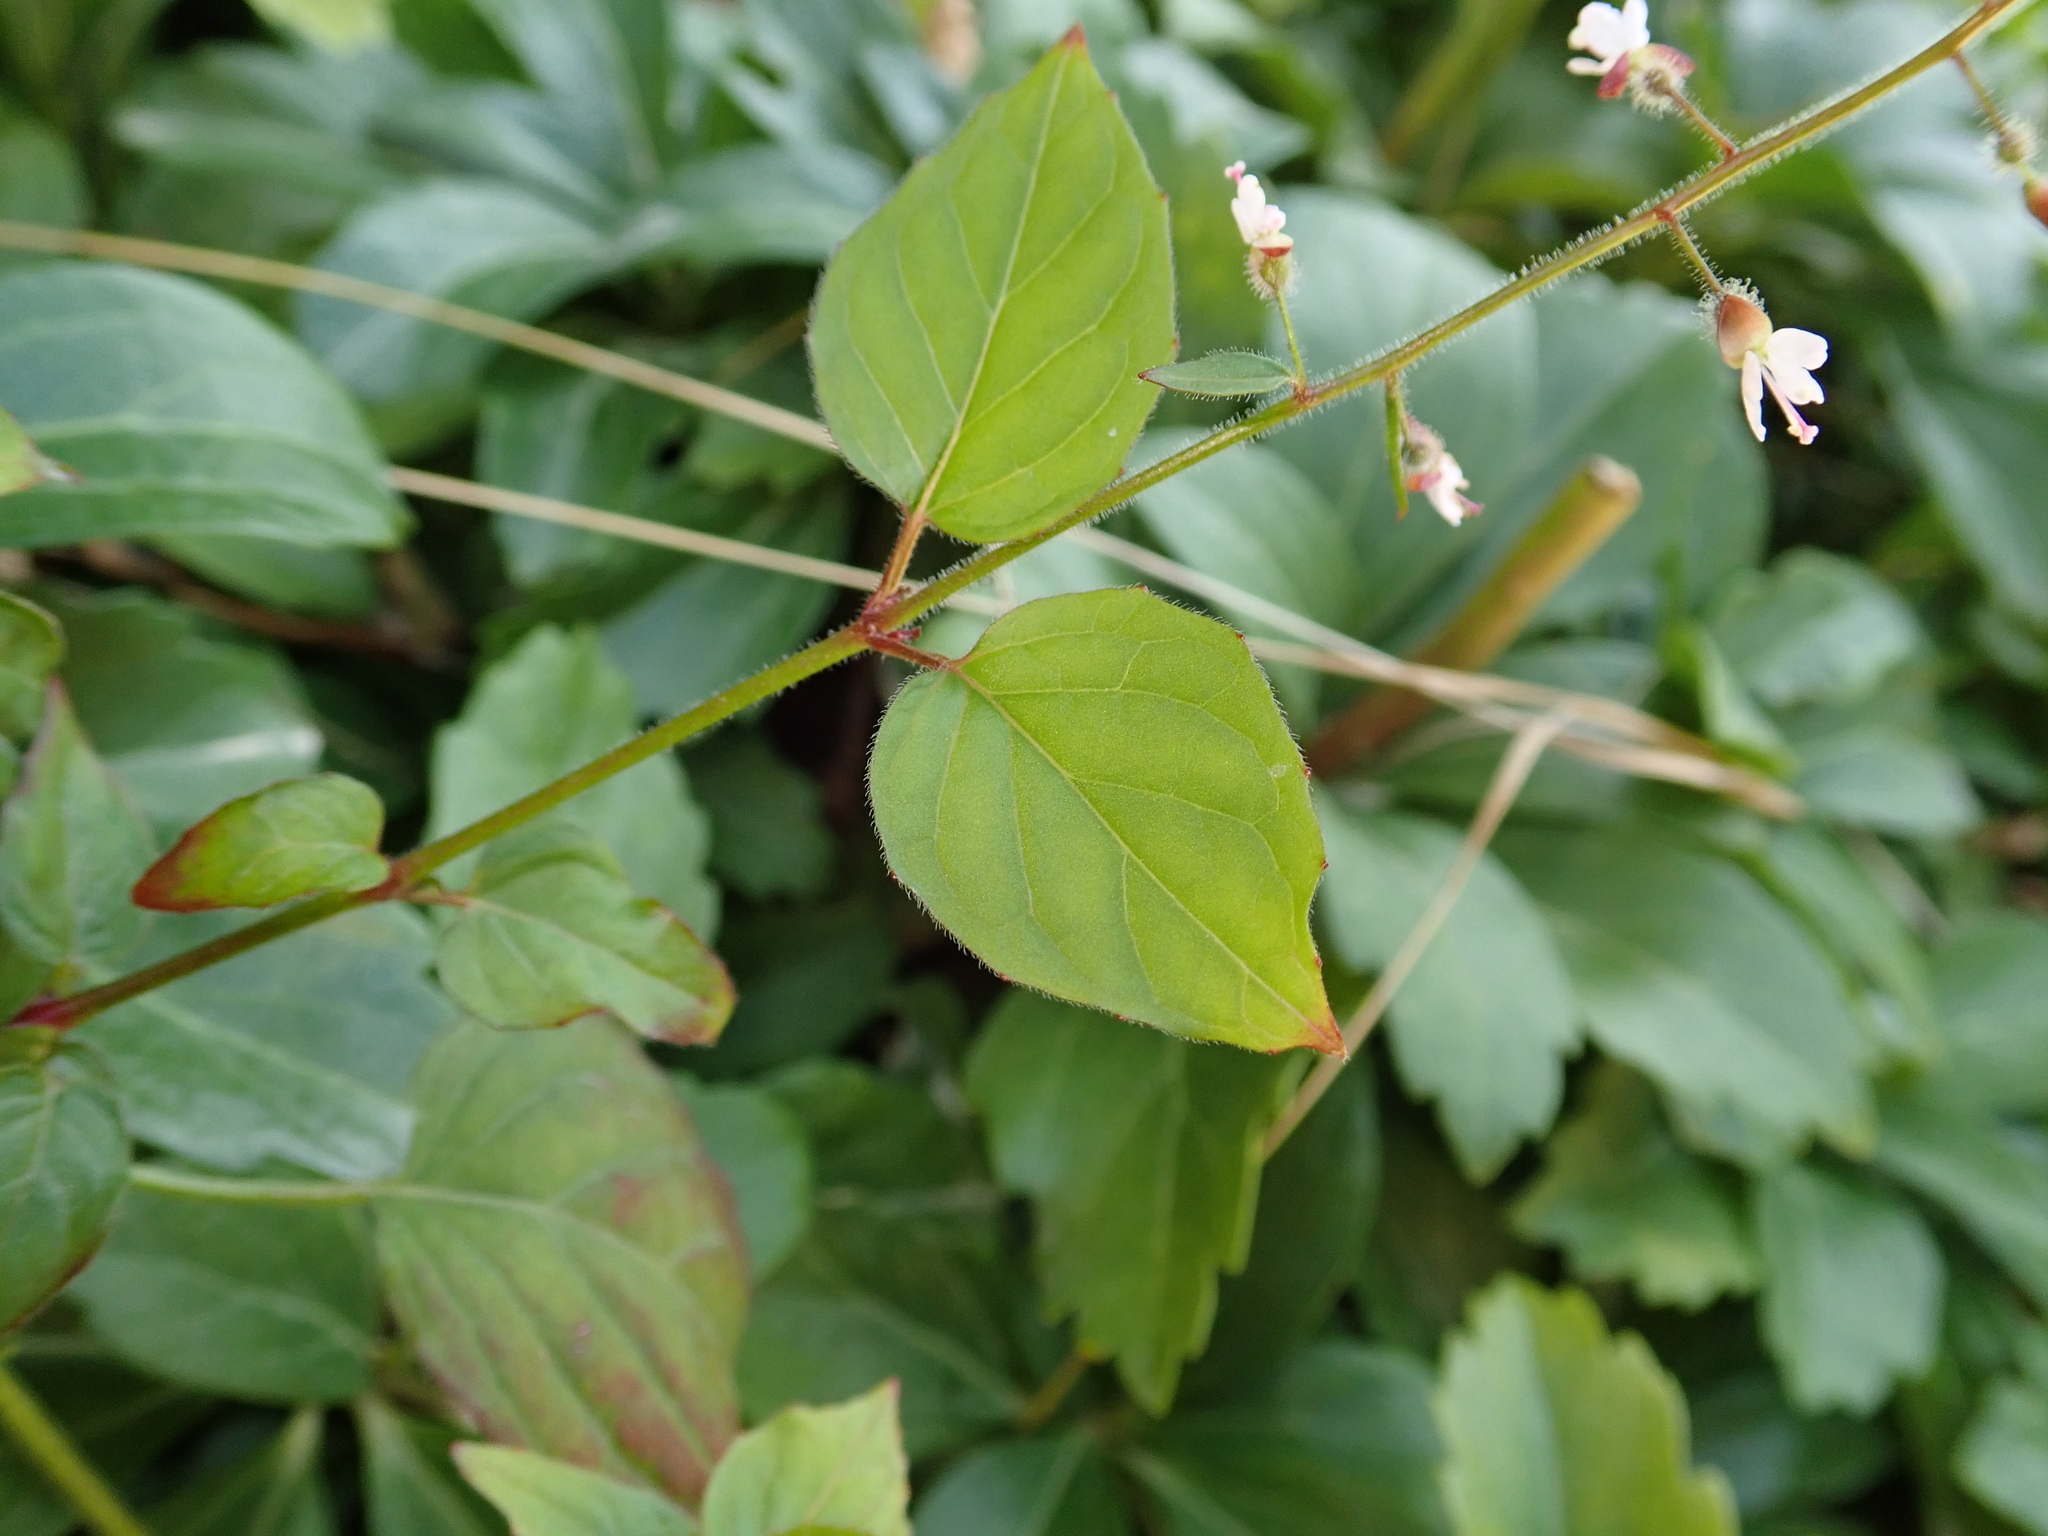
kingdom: Plantae
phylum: Tracheophyta
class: Magnoliopsida
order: Myrtales
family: Onagraceae
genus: Circaea
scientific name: Circaea lutetiana
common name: Enchanter's-nightshade
